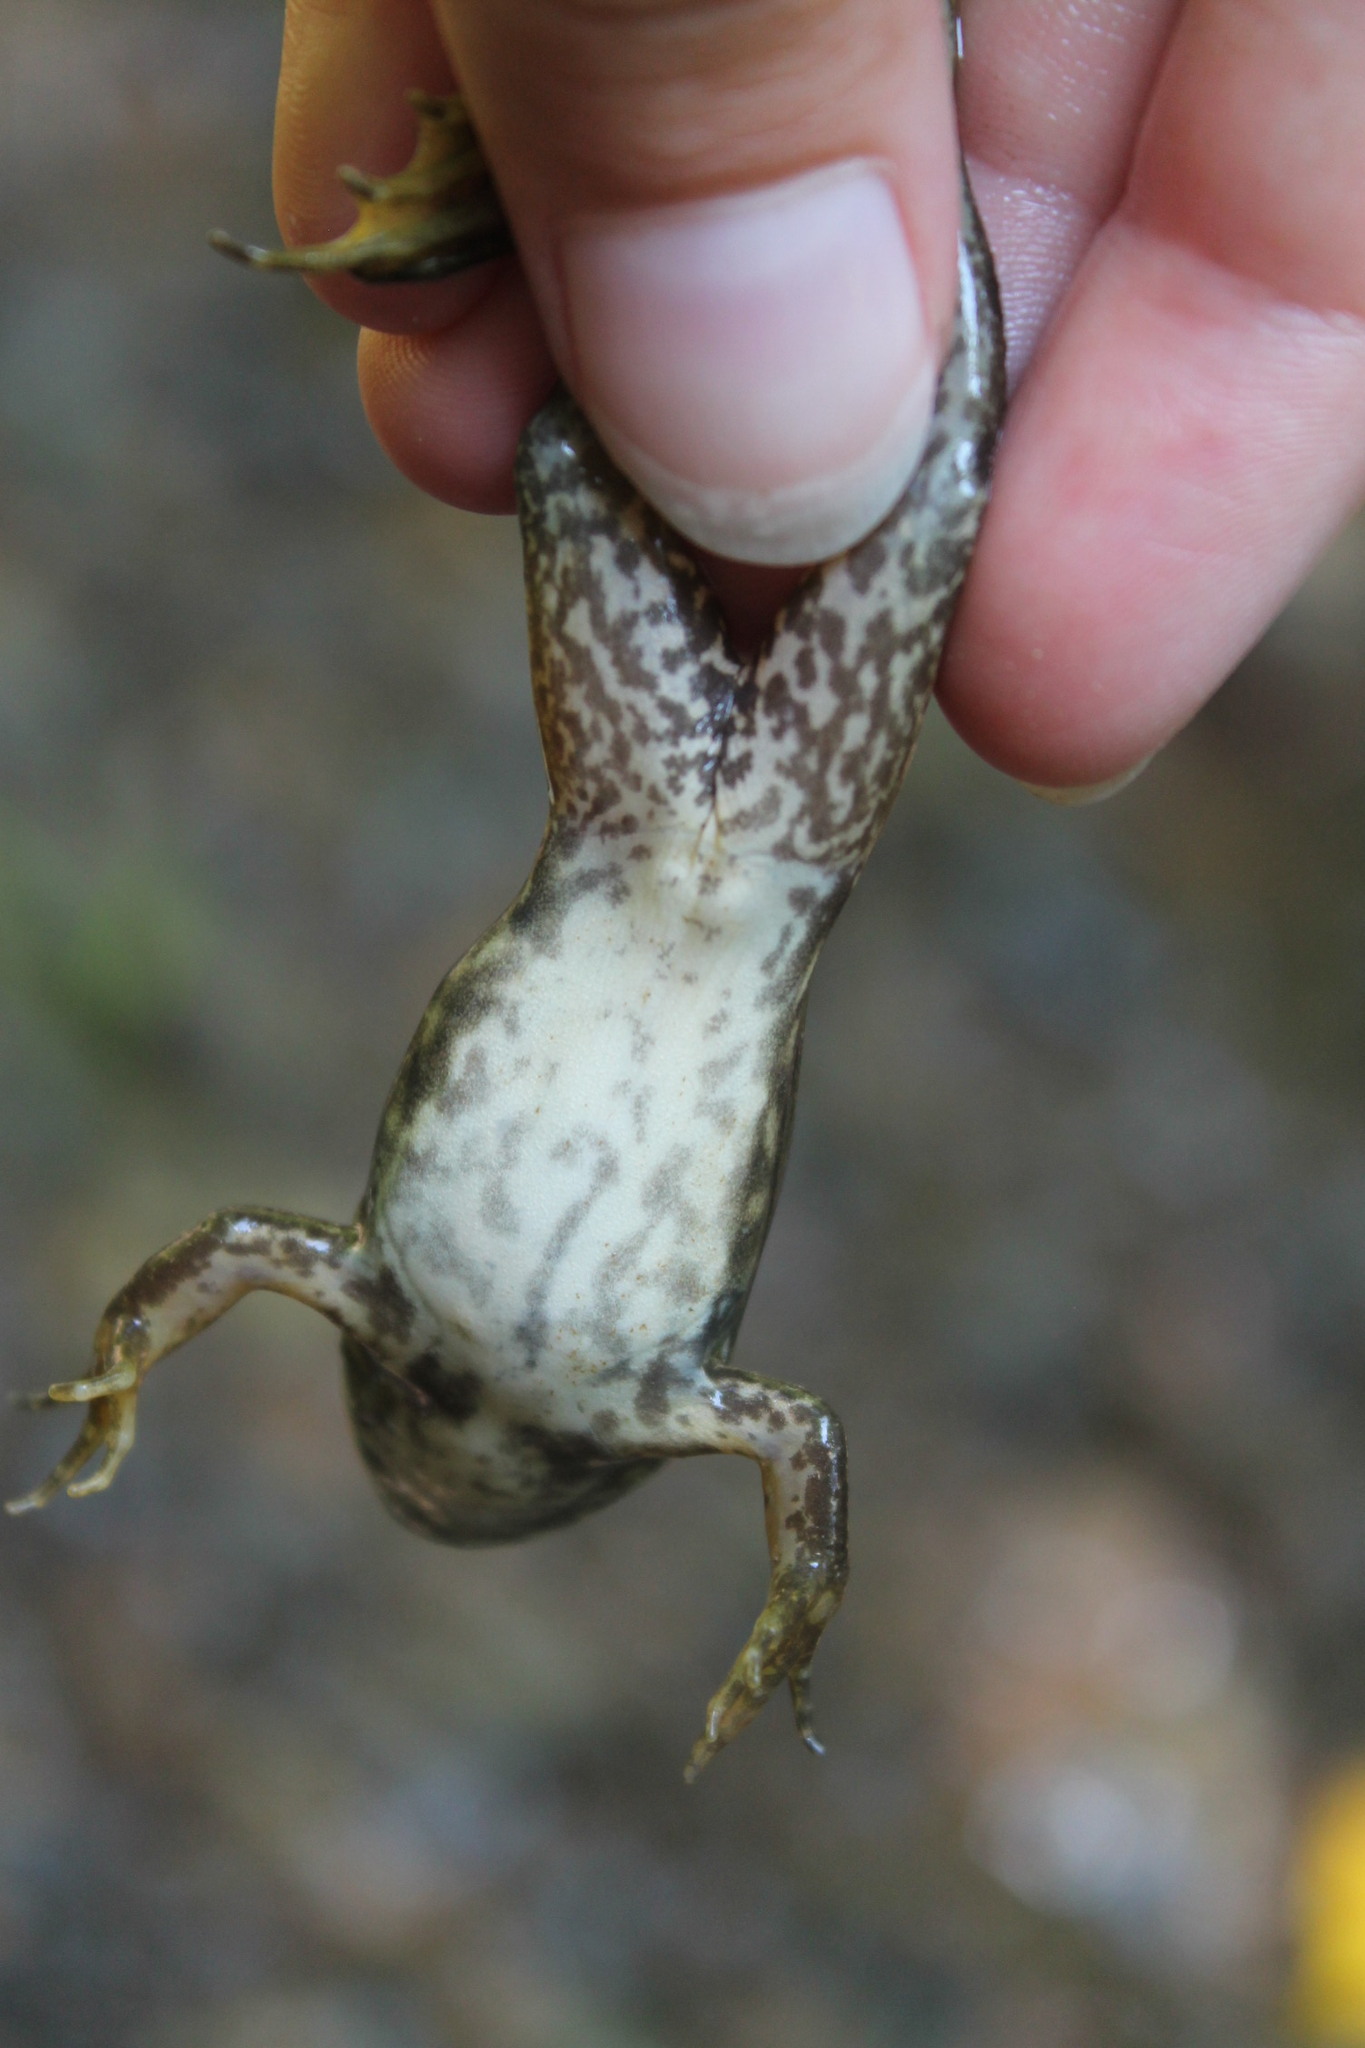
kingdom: Animalia
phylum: Chordata
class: Amphibia
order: Anura
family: Ranidae
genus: Lithobates
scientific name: Lithobates catesbeianus
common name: American bullfrog
